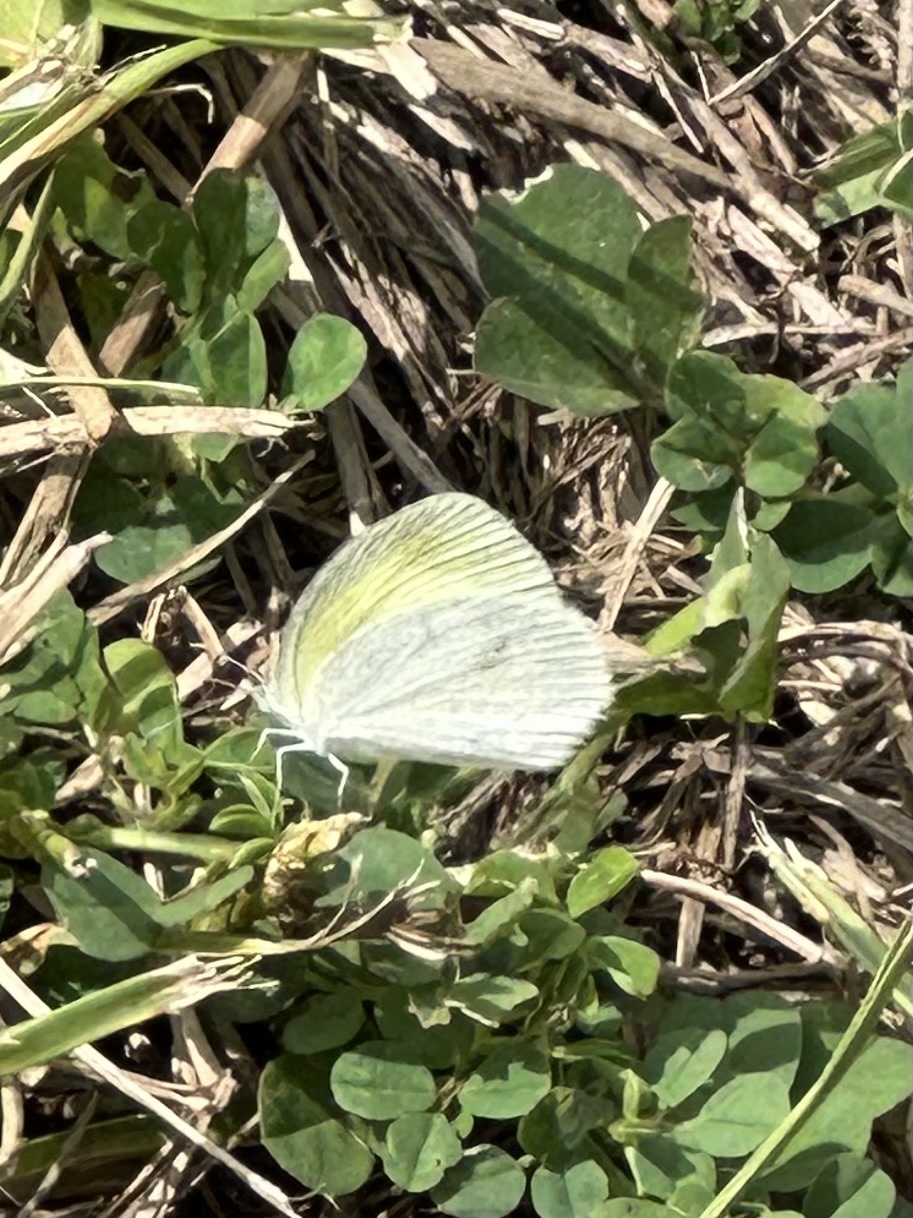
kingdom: Animalia
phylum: Arthropoda
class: Insecta
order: Lepidoptera
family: Pieridae
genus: Eurema
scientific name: Eurema daira
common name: Barred sulphur
